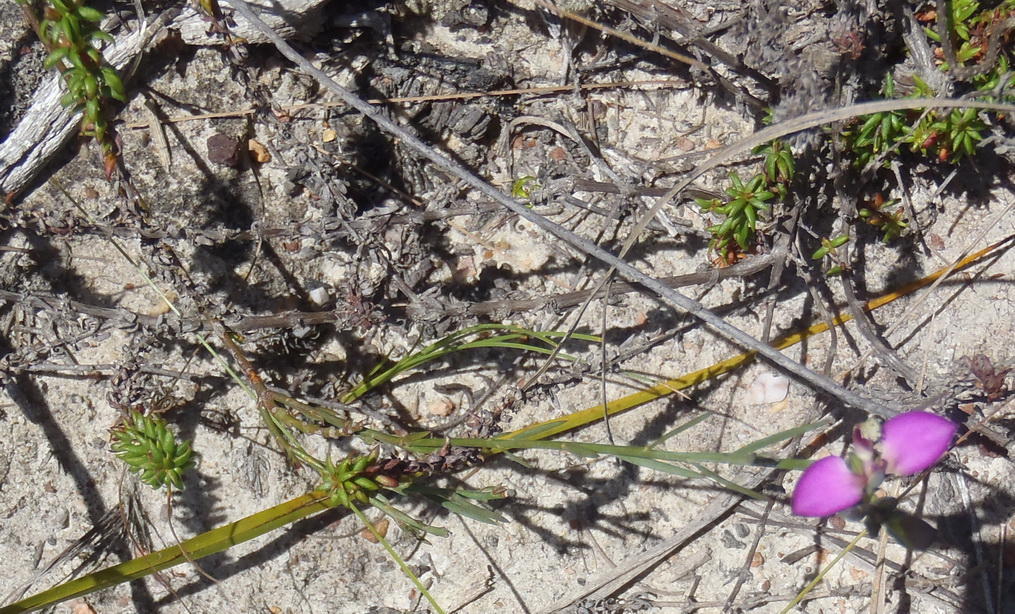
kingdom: Plantae
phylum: Tracheophyta
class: Magnoliopsida
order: Fabales
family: Polygalaceae
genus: Polygala
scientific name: Polygala wittebergensis
